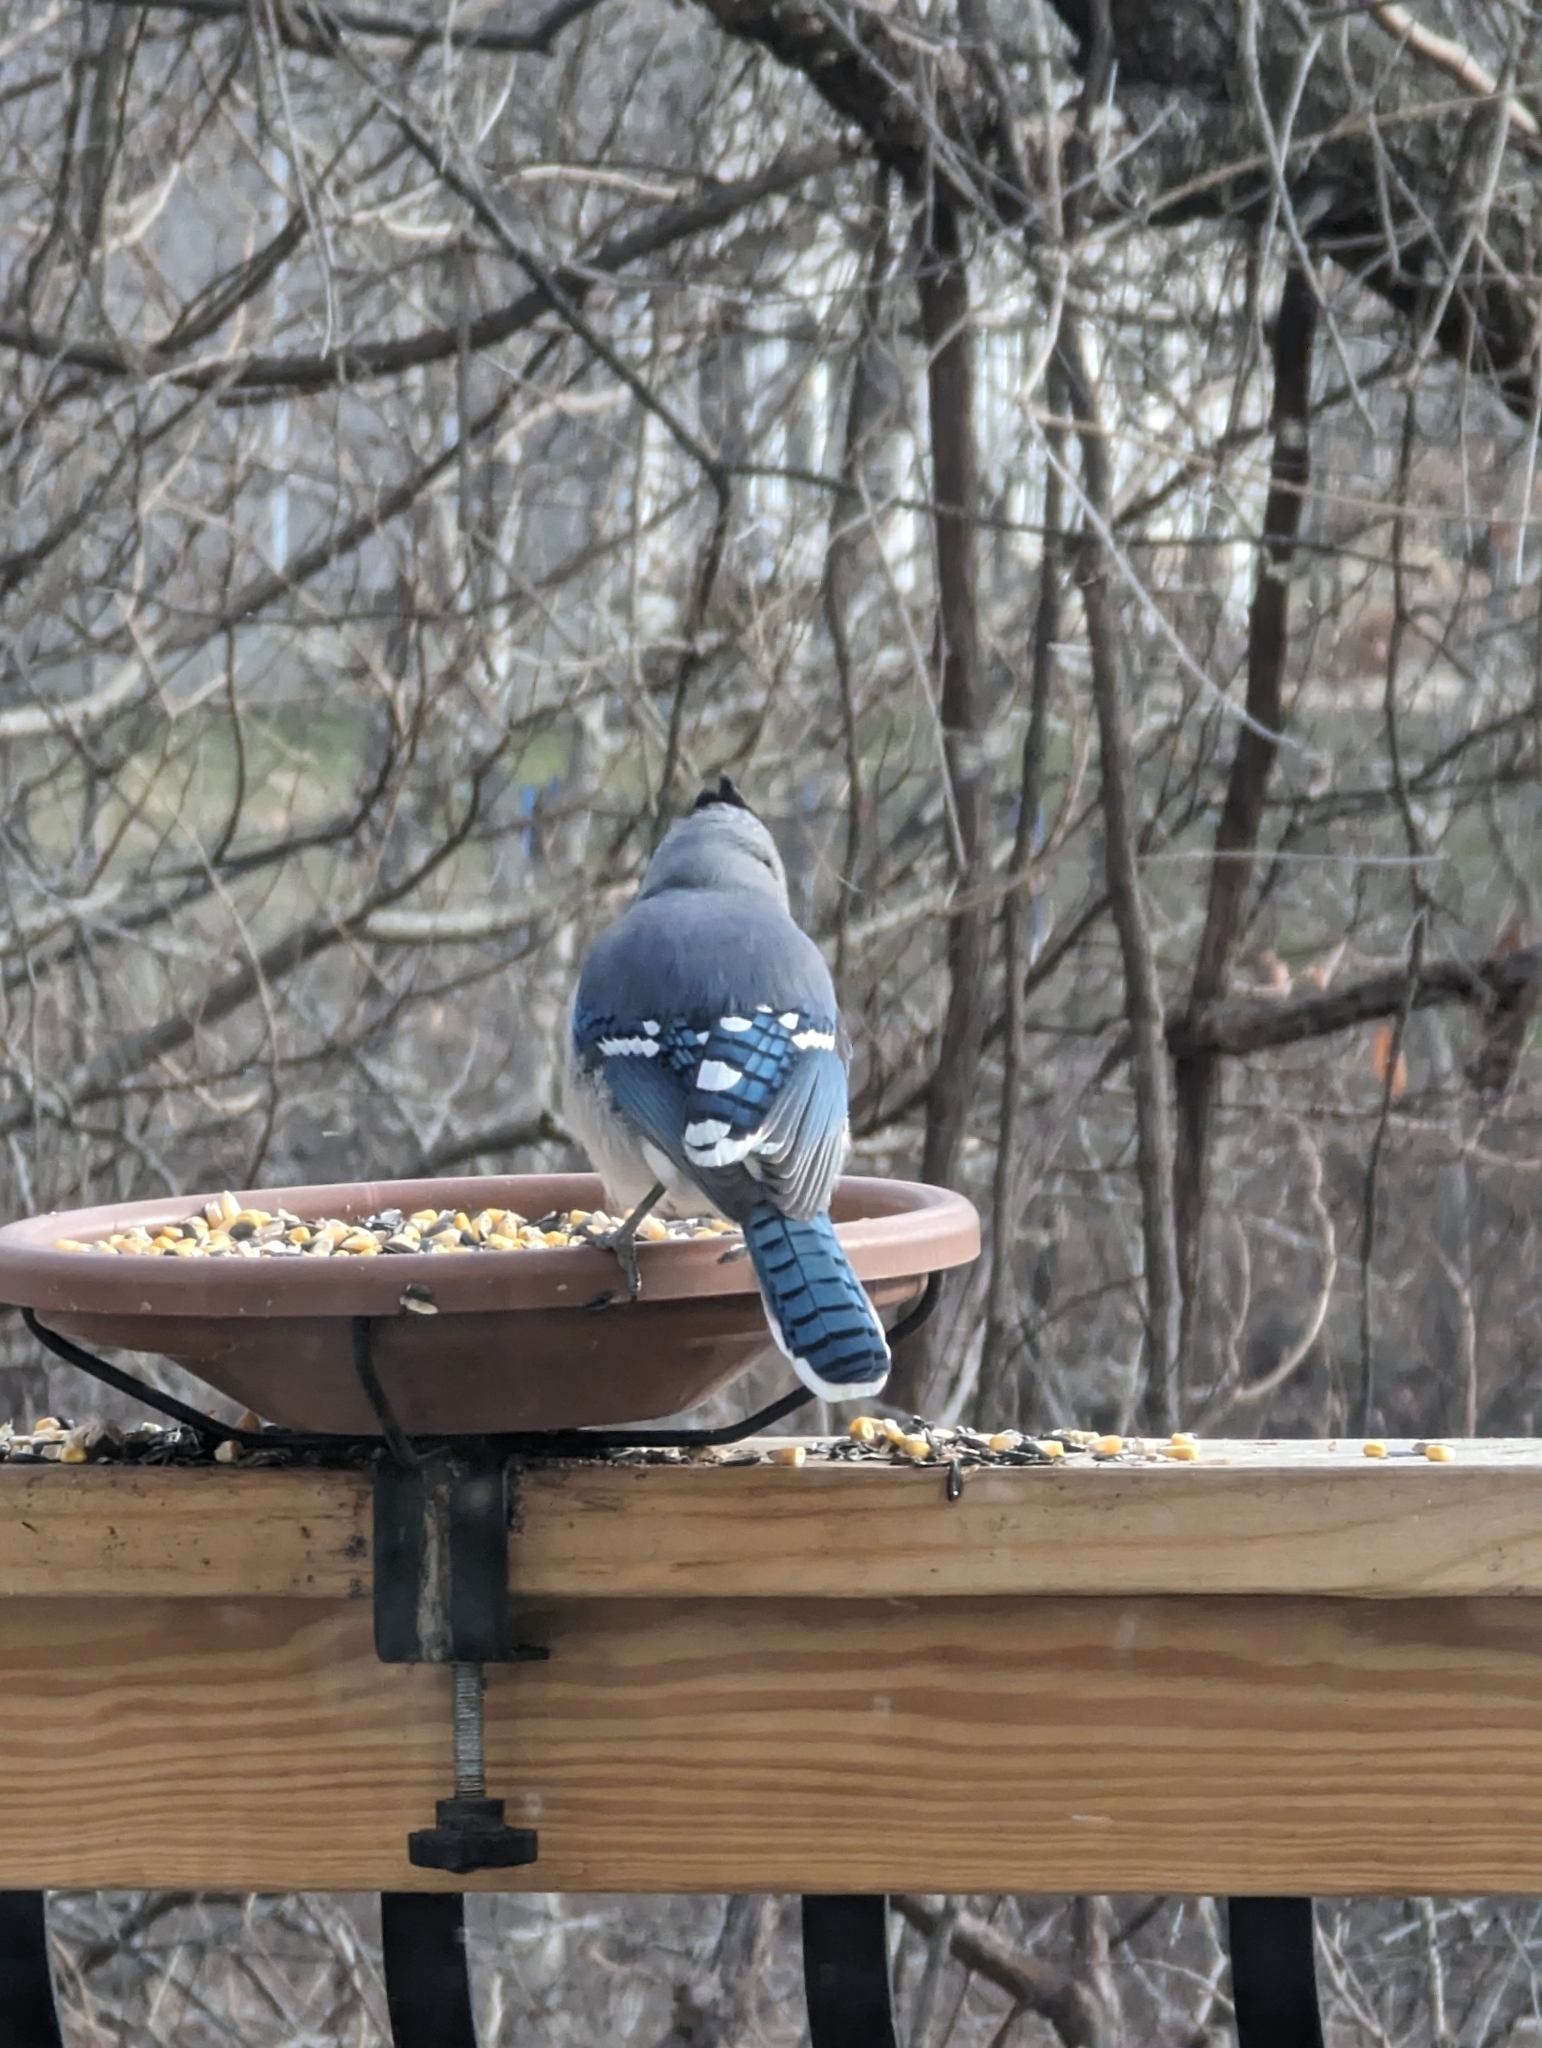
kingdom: Animalia
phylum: Chordata
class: Aves
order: Passeriformes
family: Corvidae
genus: Cyanocitta
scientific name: Cyanocitta cristata
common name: Blue jay
